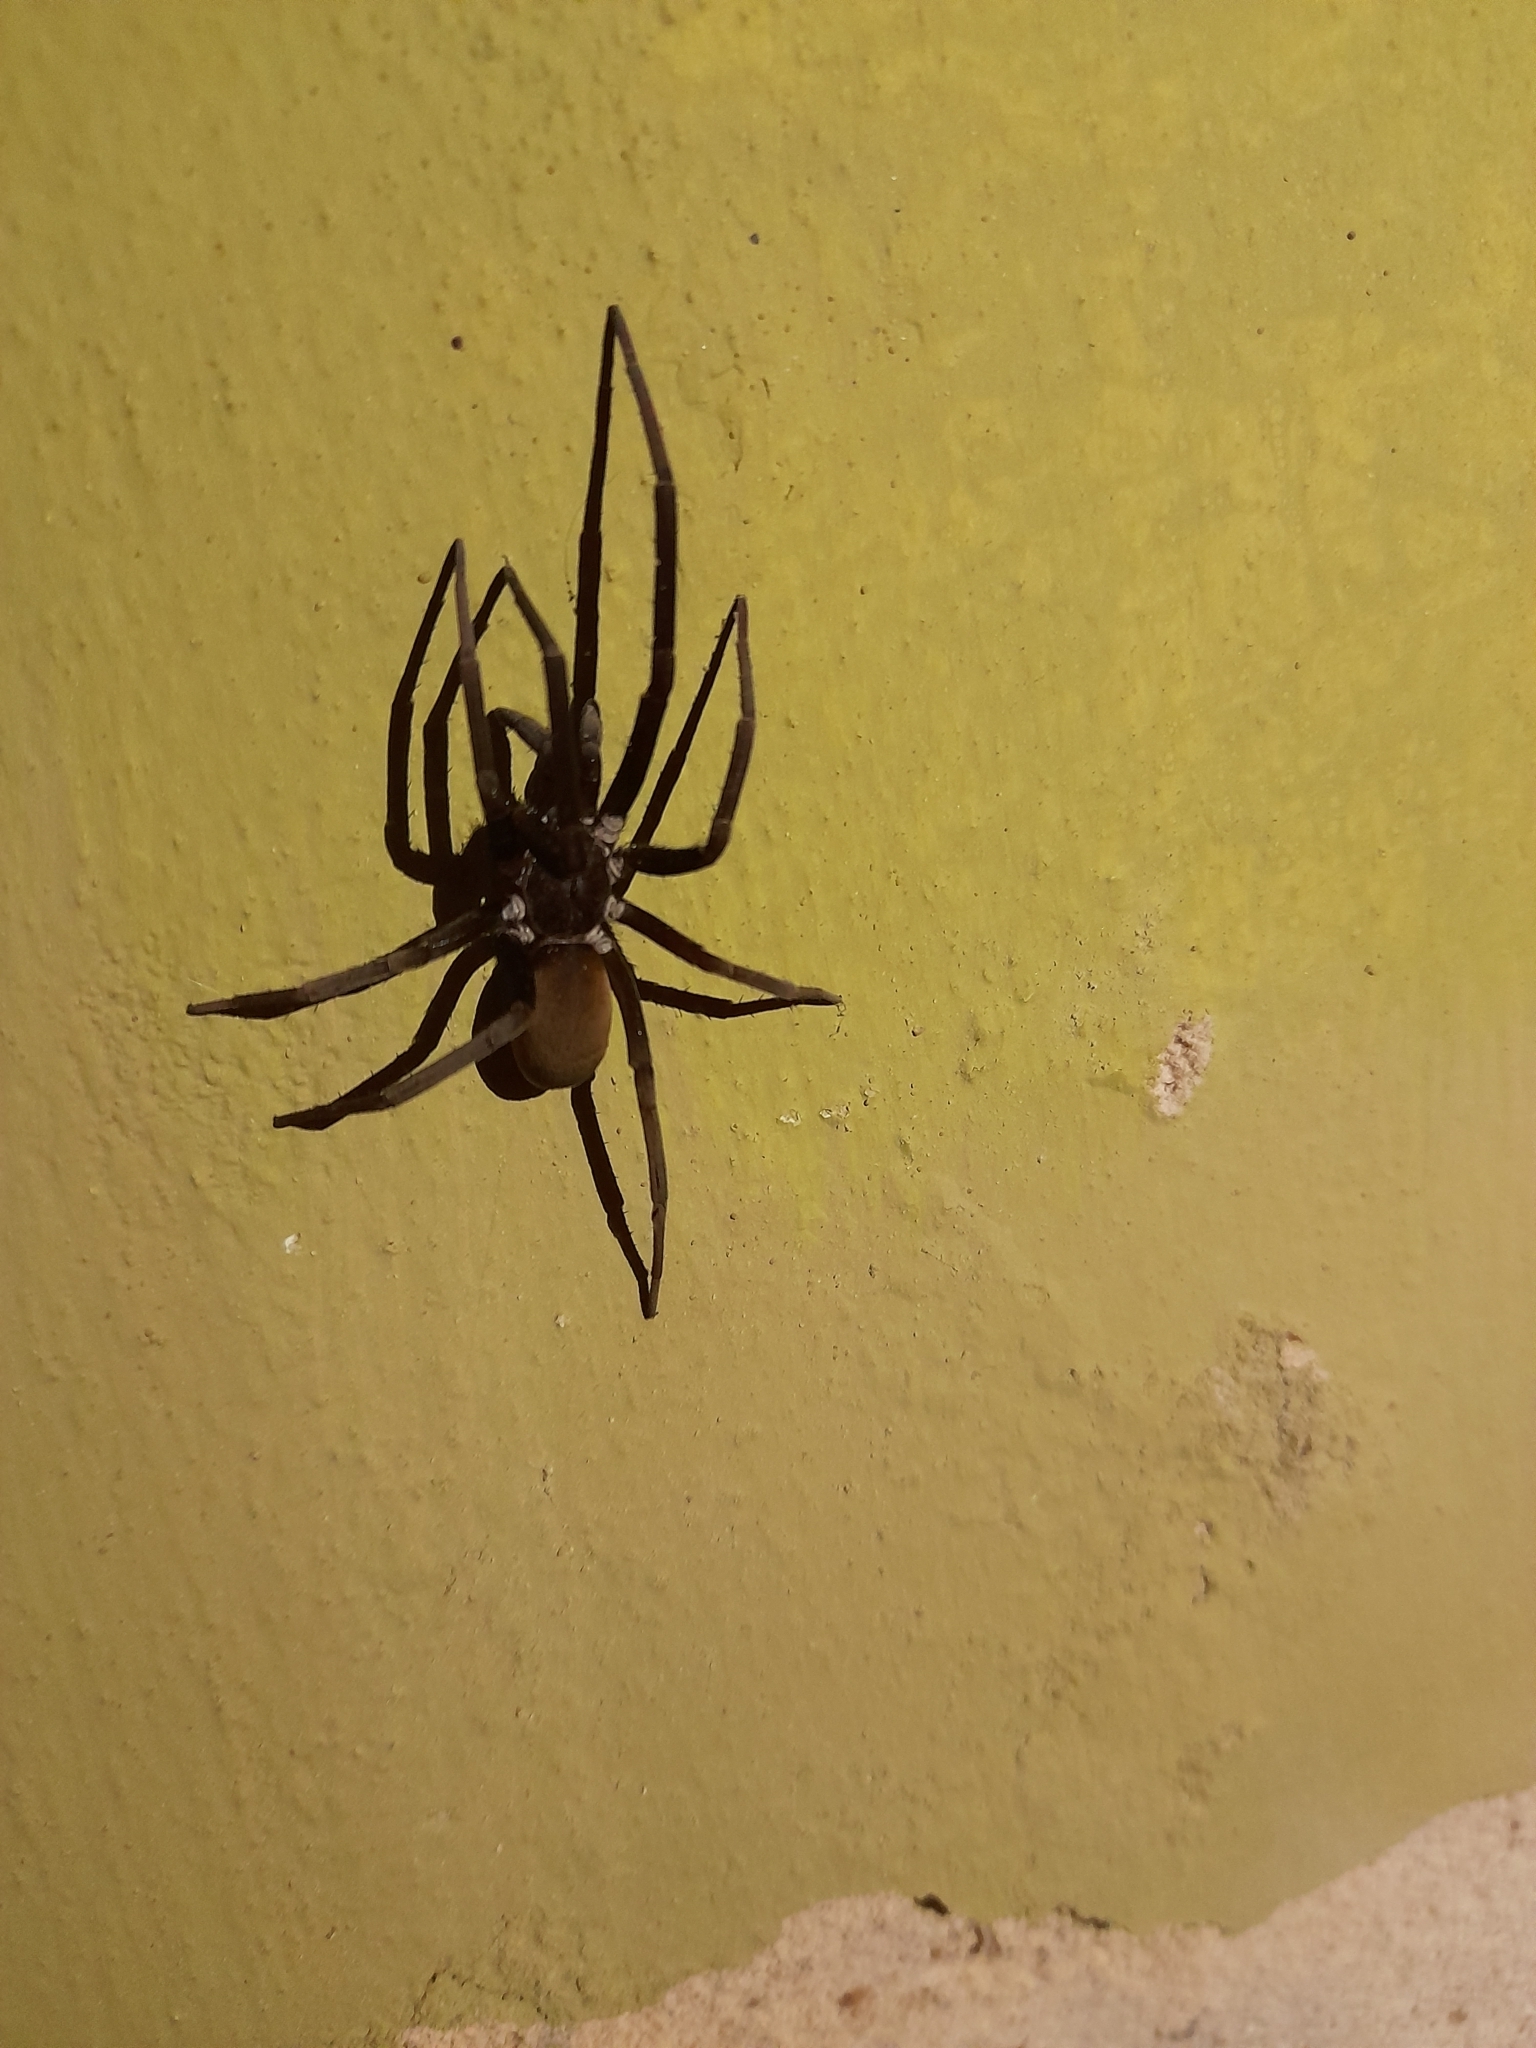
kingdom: Animalia
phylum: Arthropoda
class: Arachnida
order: Araneae
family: Filistatidae
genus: Kukulcania
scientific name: Kukulcania hibernalis
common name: Crevice weaver
